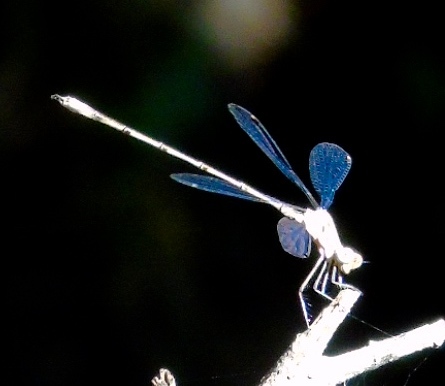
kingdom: Animalia
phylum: Arthropoda
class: Insecta
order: Odonata
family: Lestidae
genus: Lestes
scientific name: Lestes sigma
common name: Chalky spreadwing
